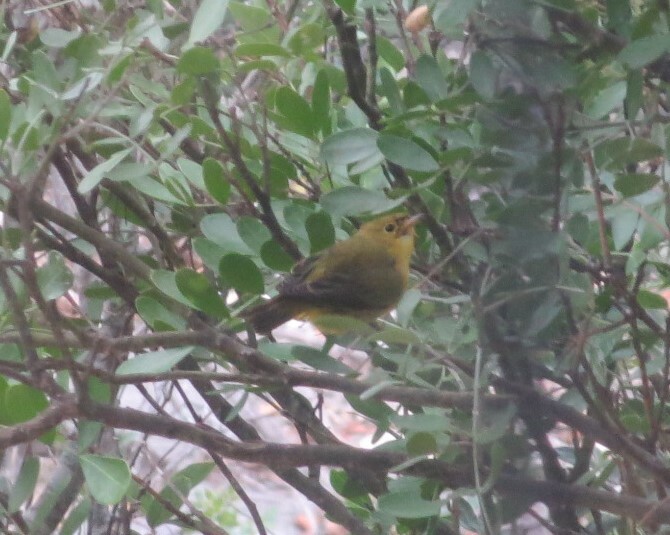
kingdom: Animalia
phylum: Chordata
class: Aves
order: Passeriformes
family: Parulidae
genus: Cardellina
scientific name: Cardellina pusilla
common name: Wilson's warbler
